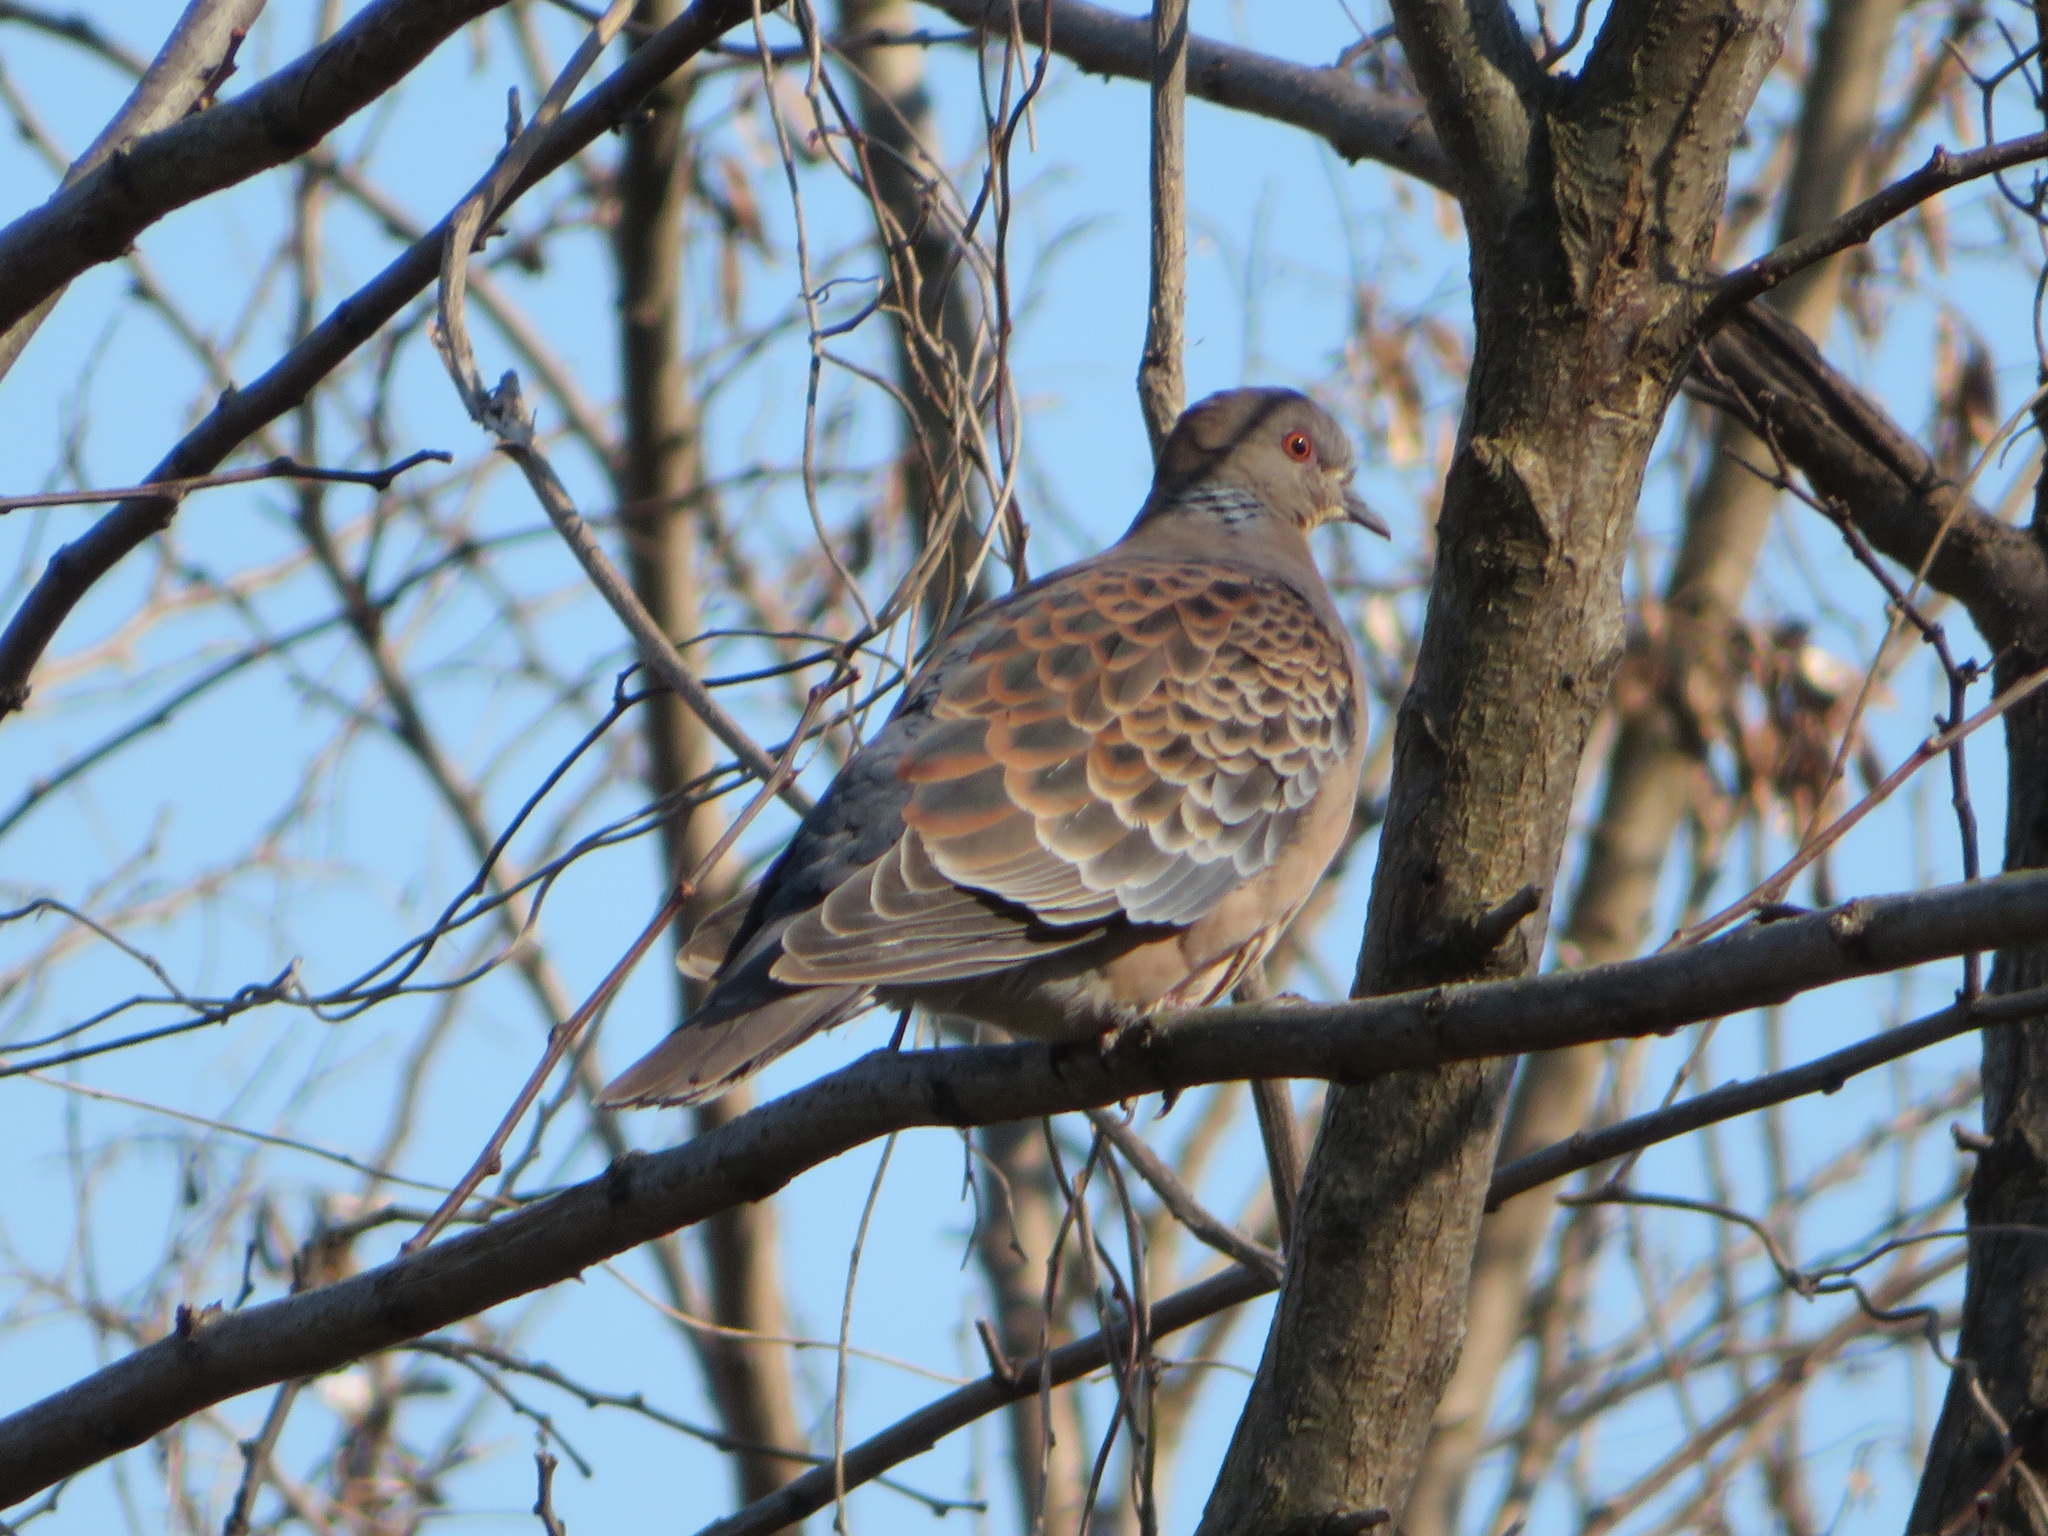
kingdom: Animalia
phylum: Chordata
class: Aves
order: Columbiformes
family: Columbidae
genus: Streptopelia
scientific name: Streptopelia orientalis
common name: Oriental turtle dove
